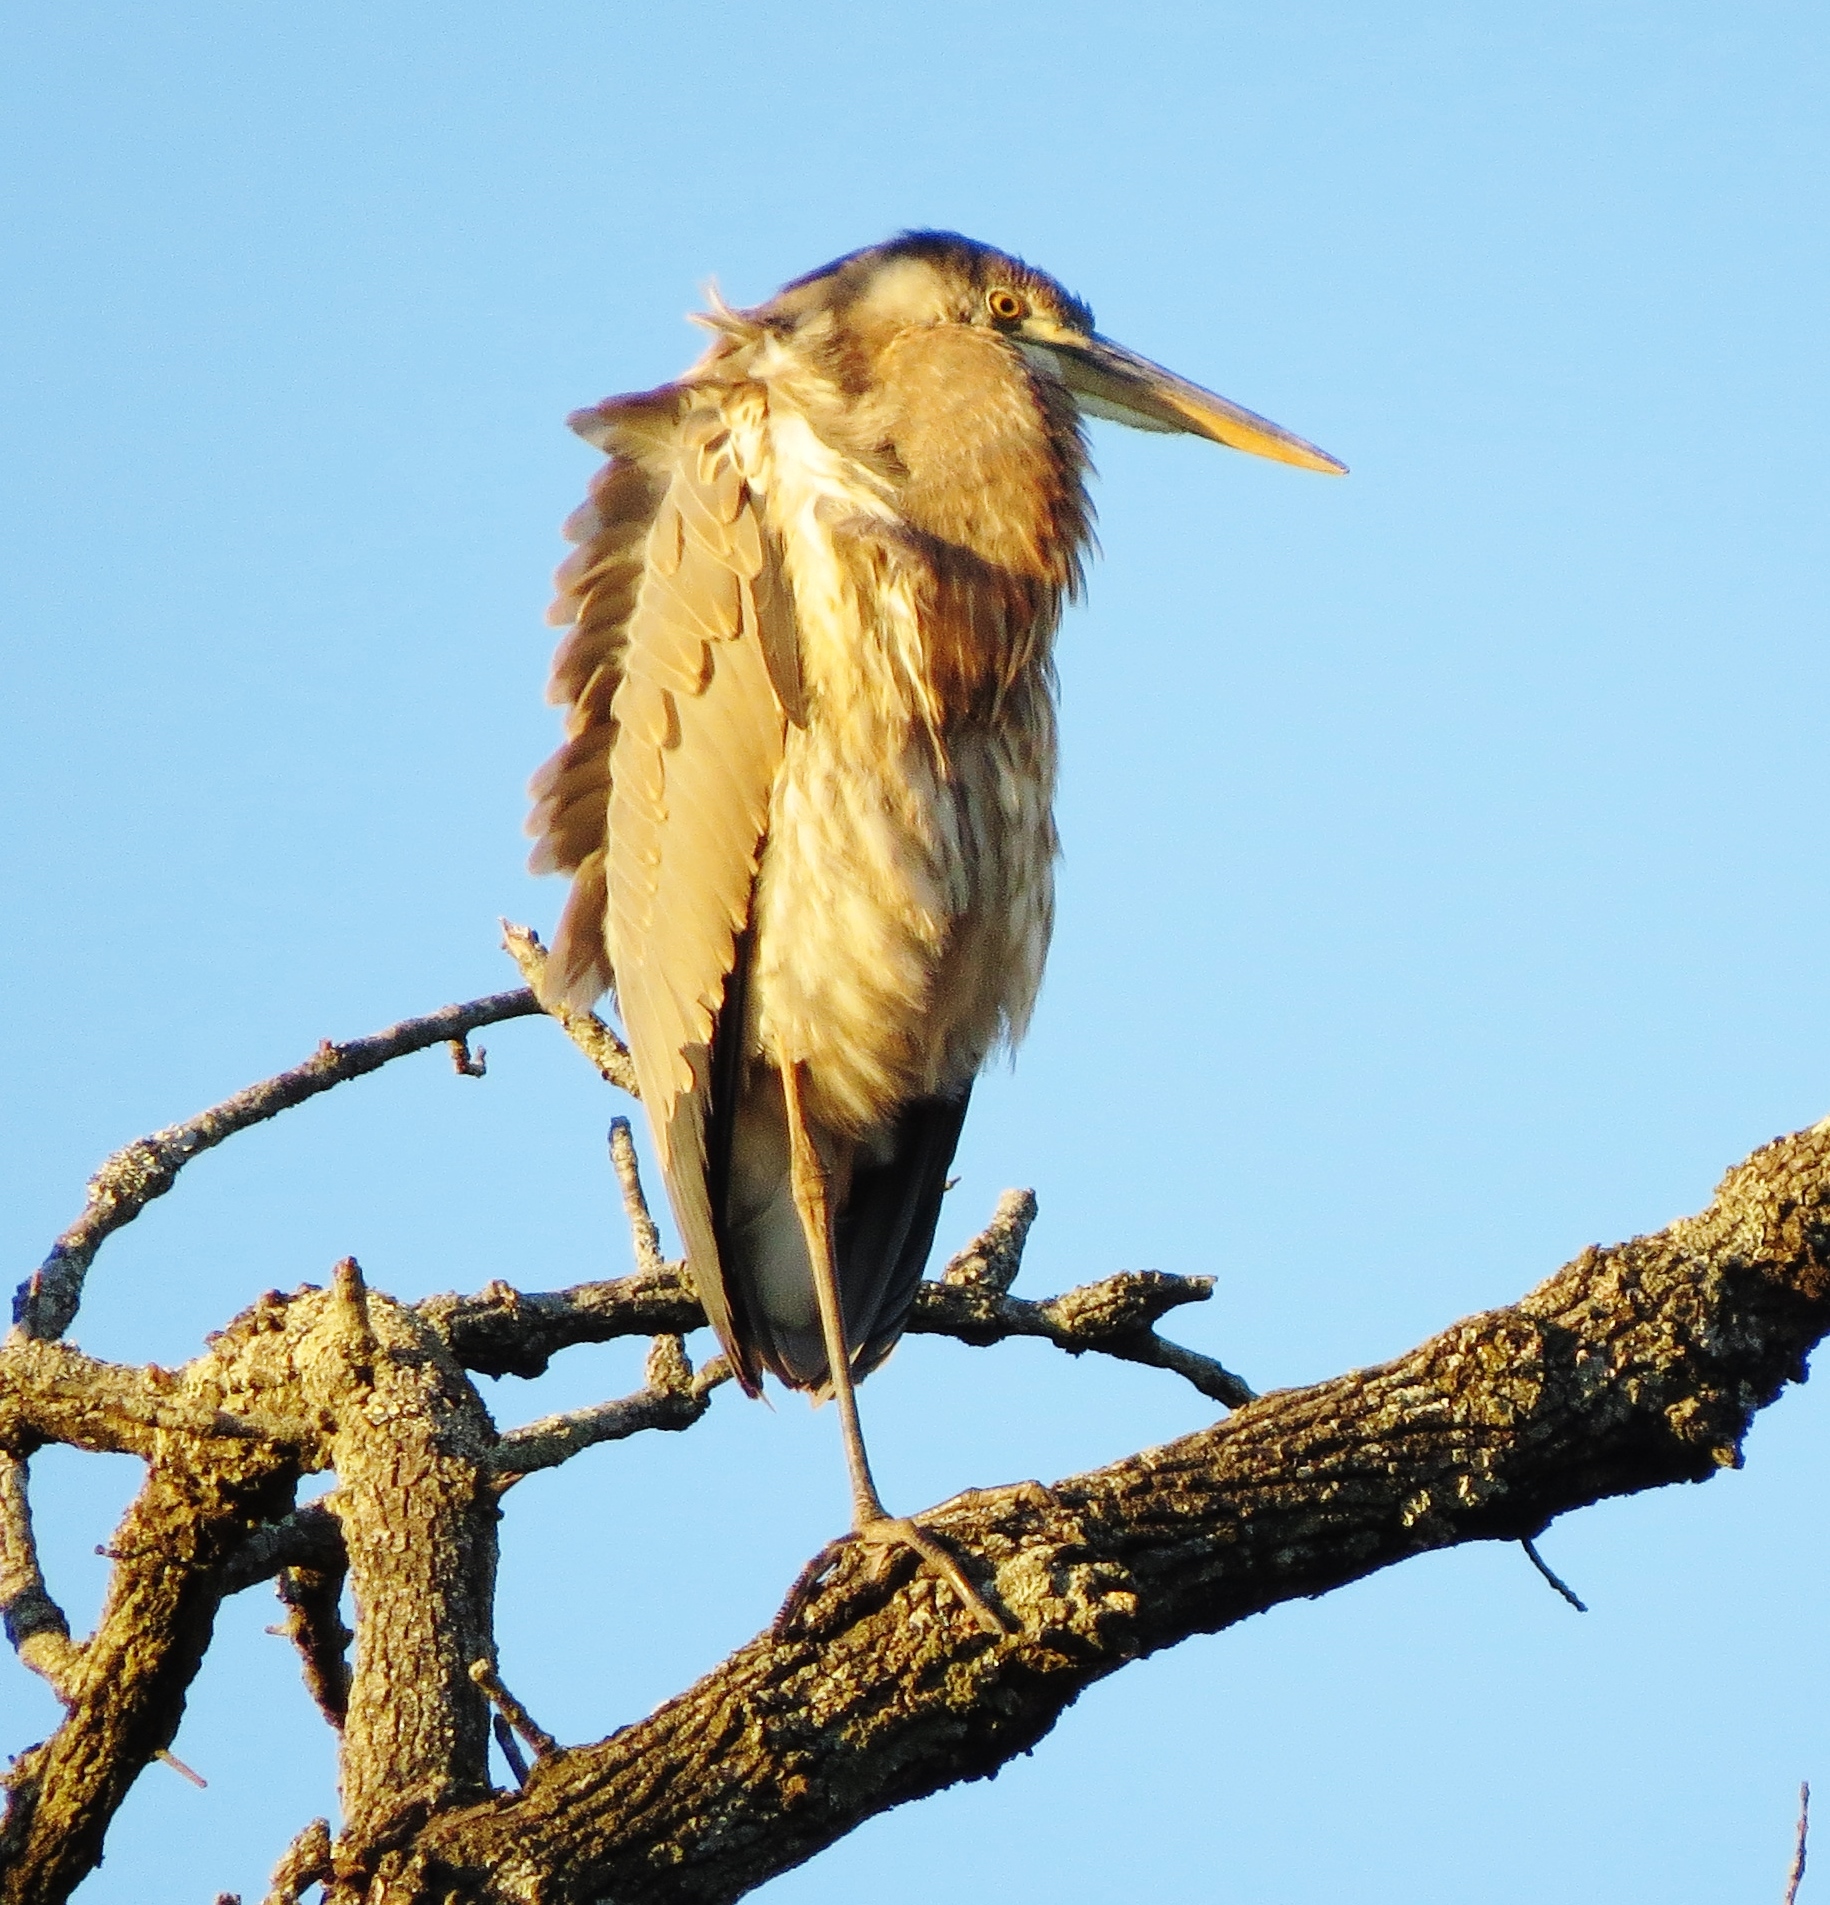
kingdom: Animalia
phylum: Chordata
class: Aves
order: Pelecaniformes
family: Ardeidae
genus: Ardea
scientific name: Ardea herodias
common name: Great blue heron
